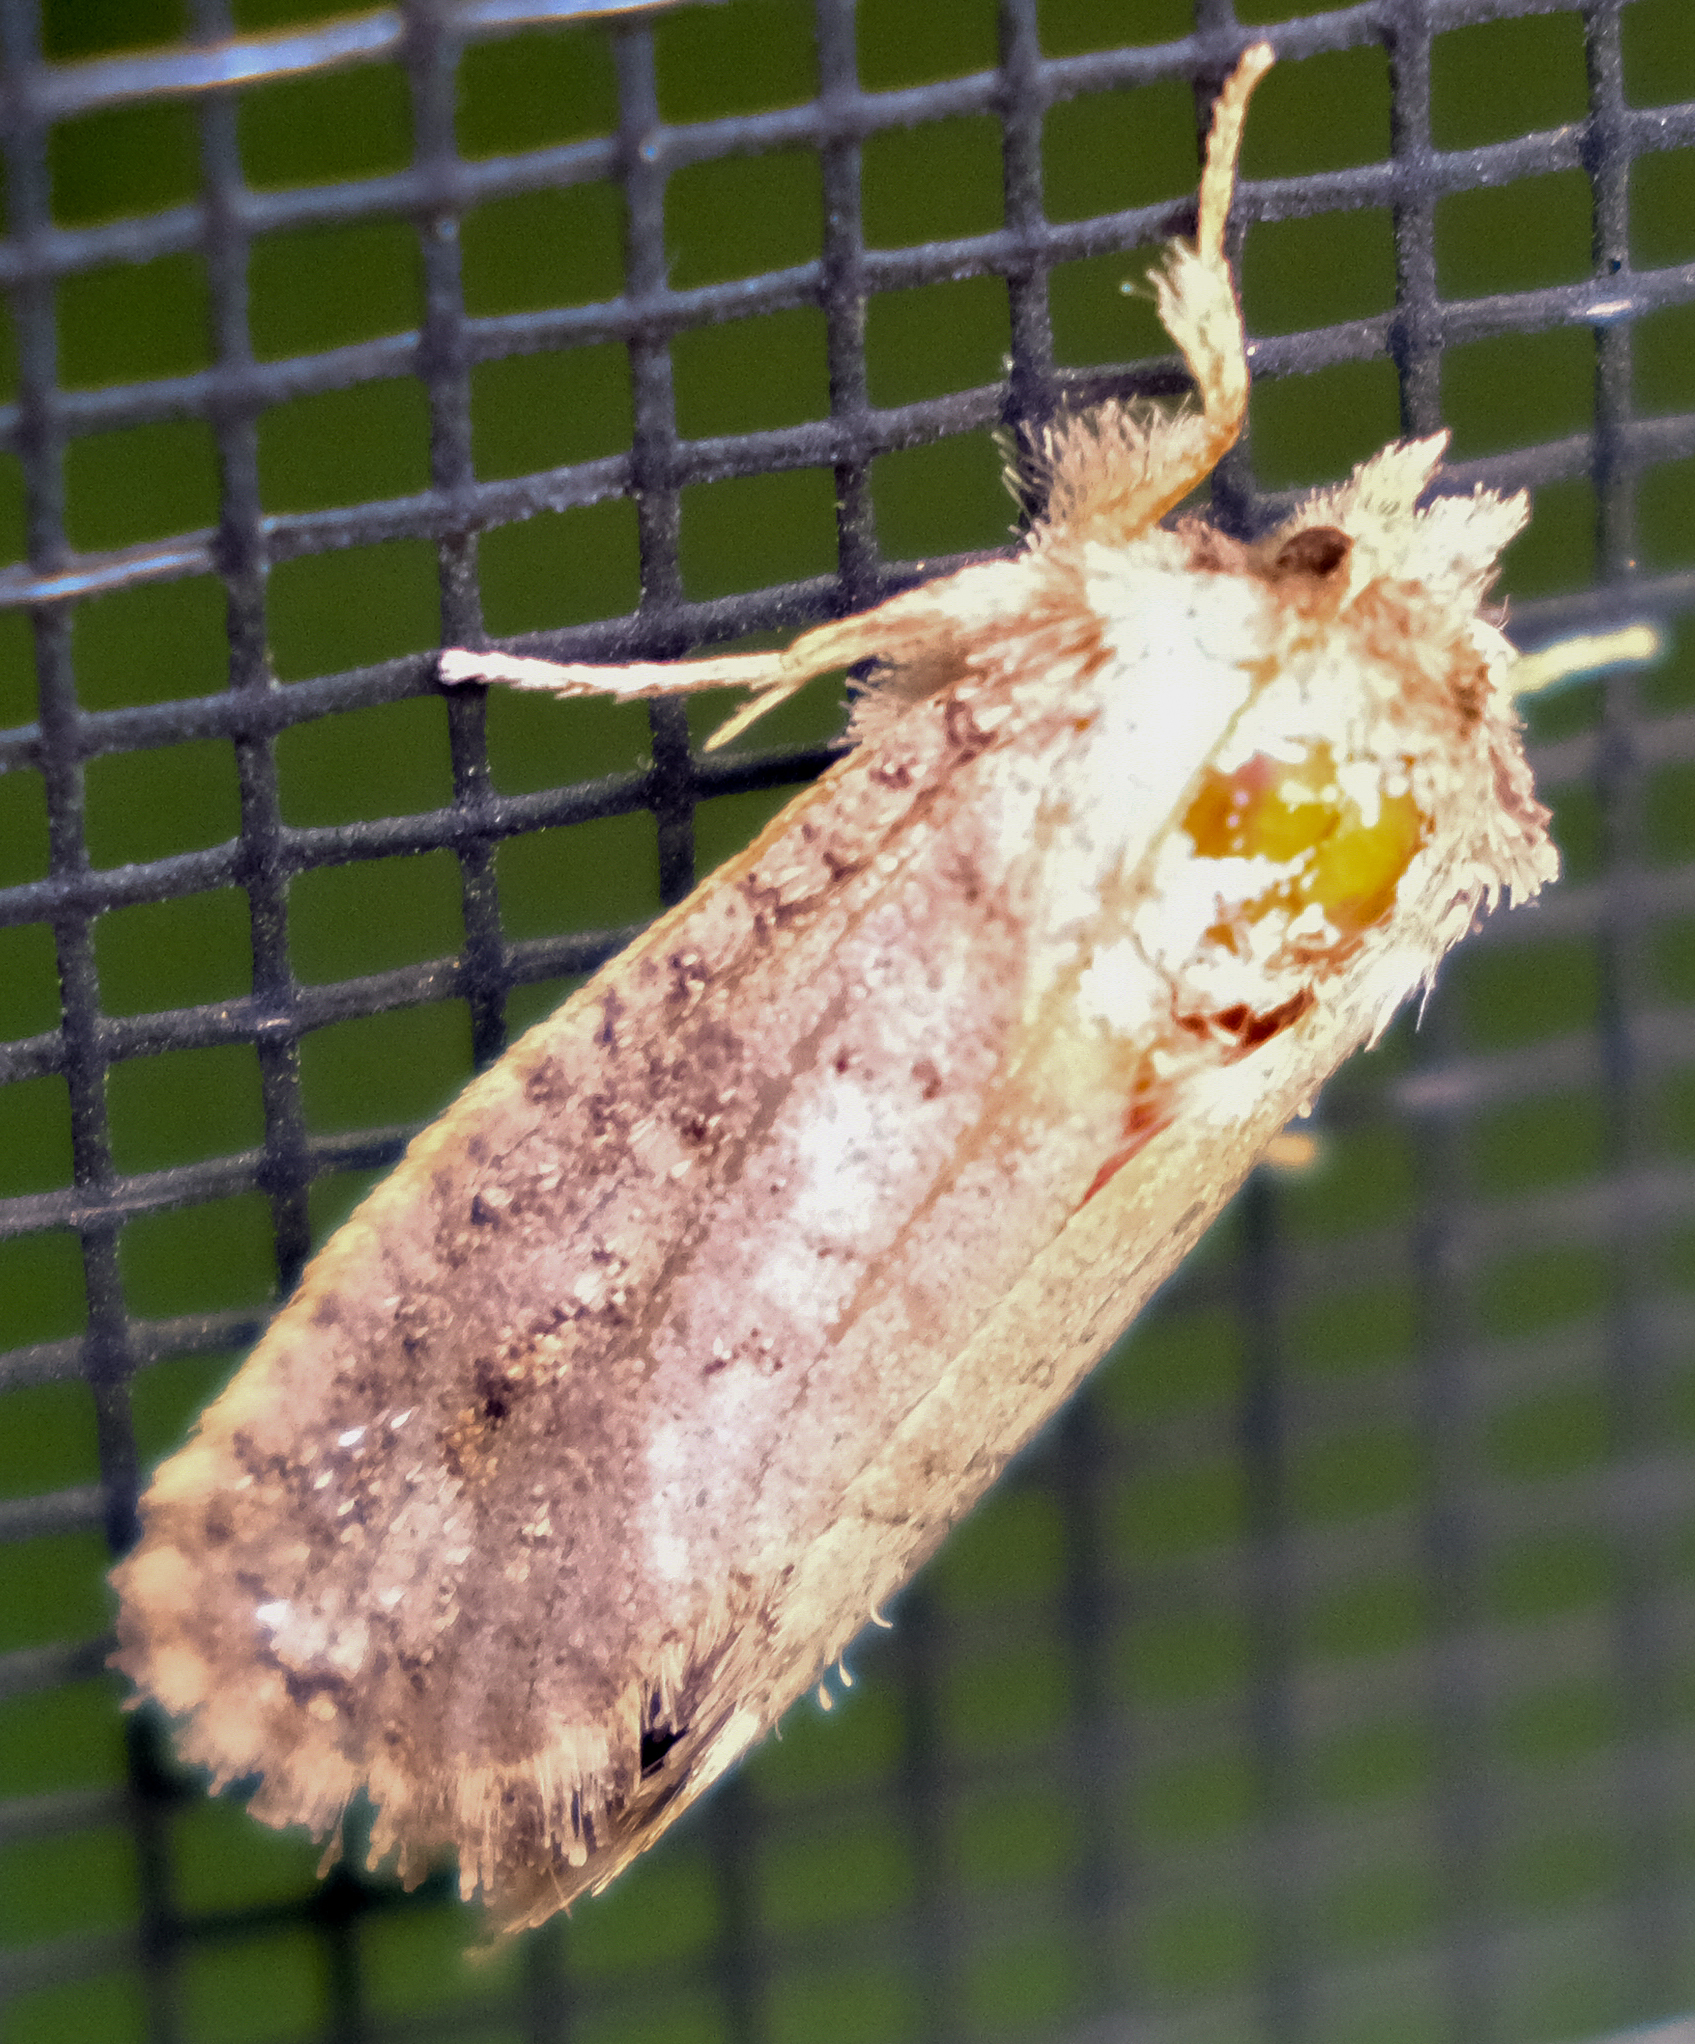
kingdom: Animalia
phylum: Arthropoda
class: Insecta
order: Lepidoptera
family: Tineidae
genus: Acrolophus
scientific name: Acrolophus arcanella
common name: Arcane grass tubeworm moth
